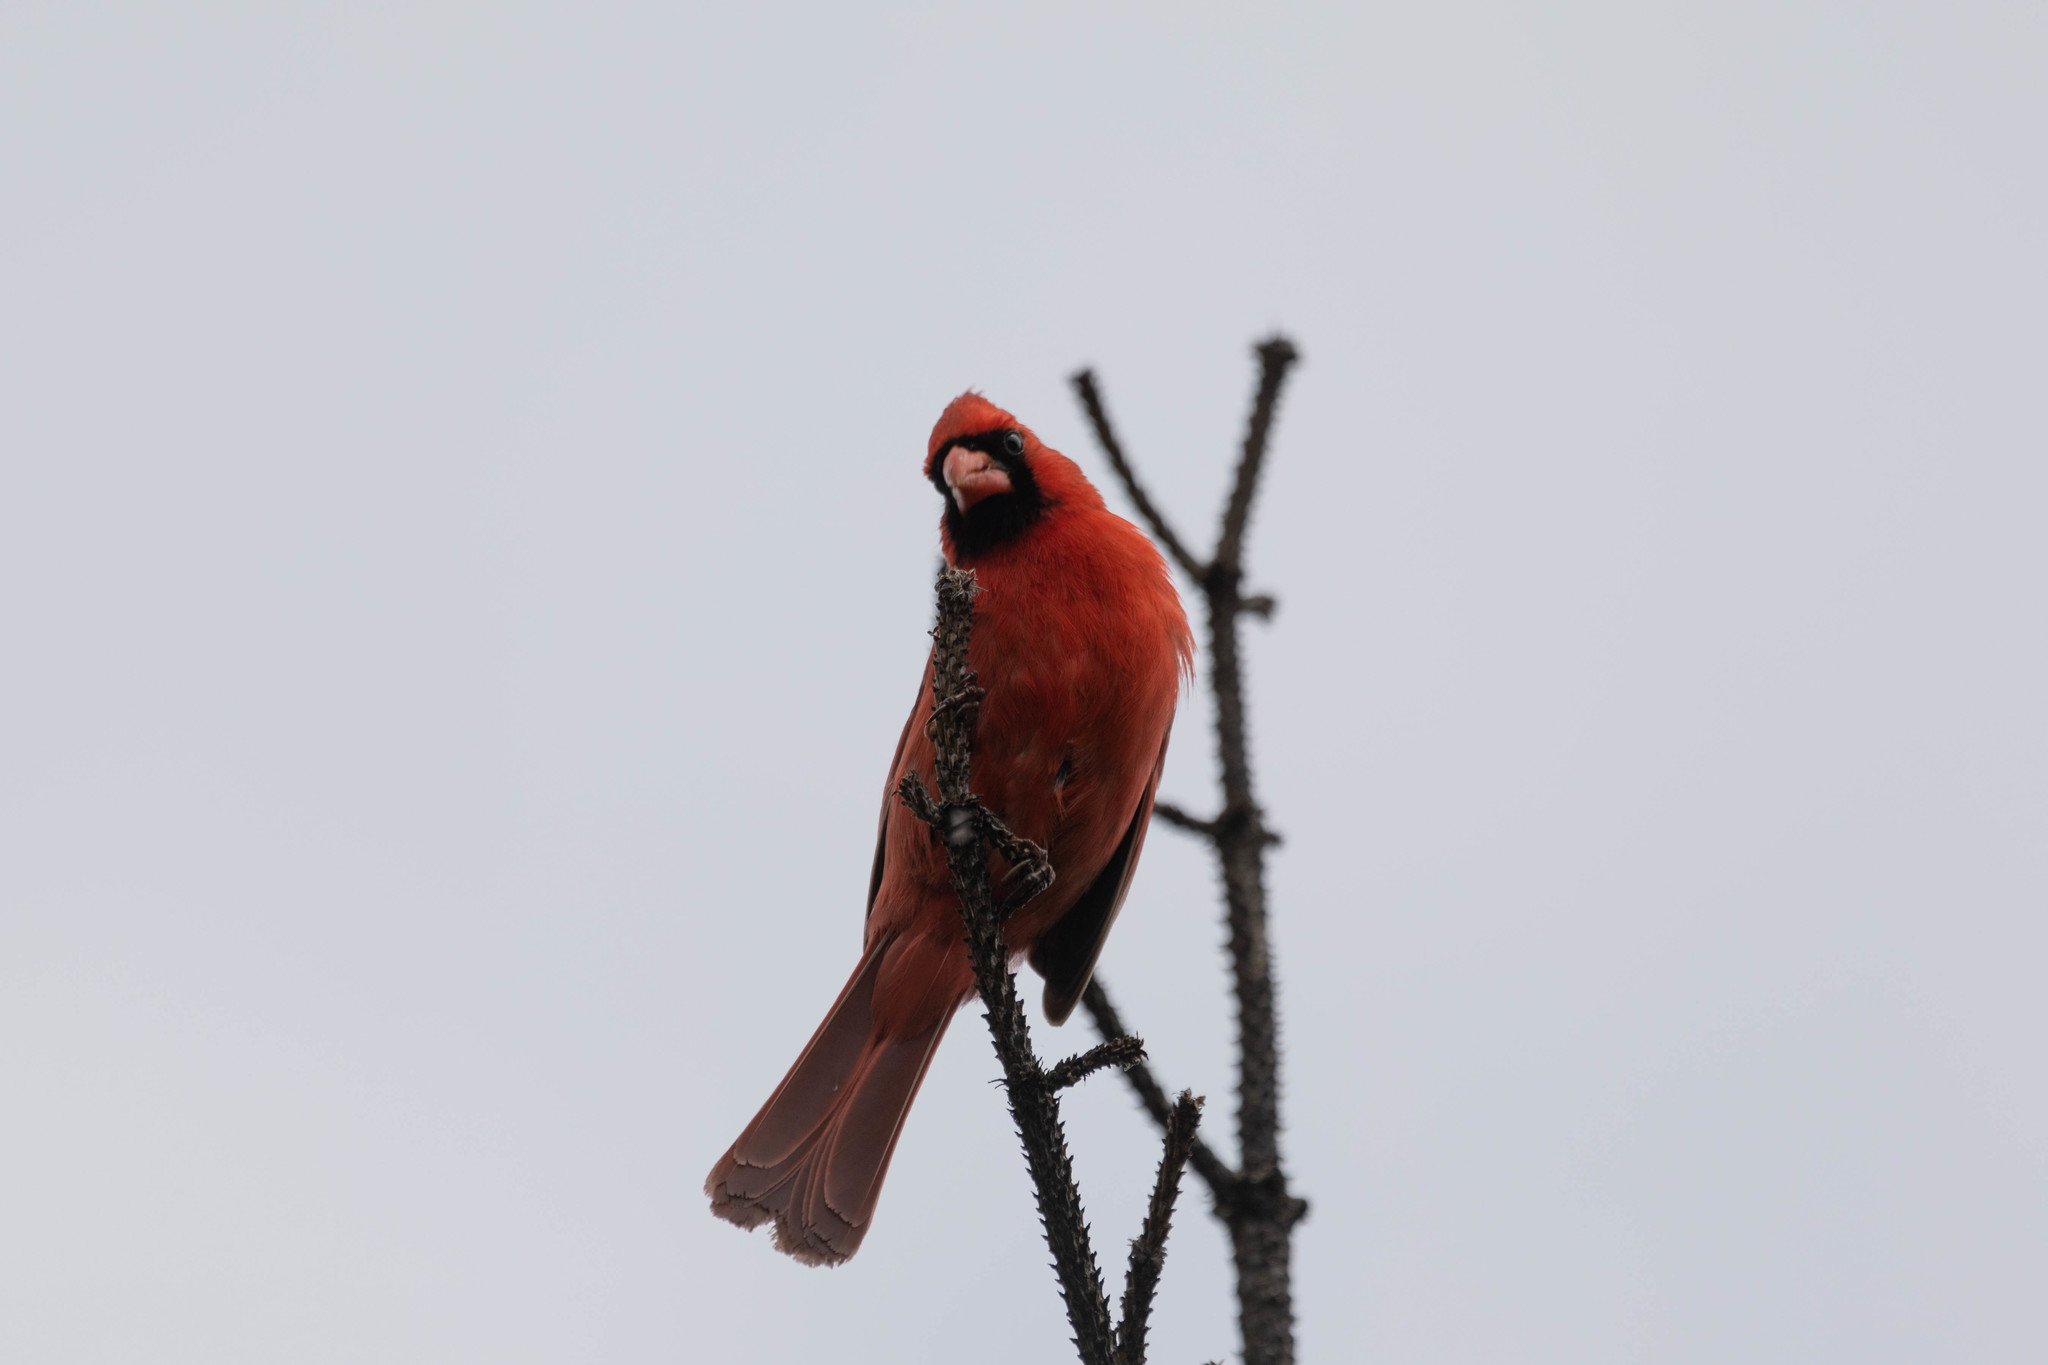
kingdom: Animalia
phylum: Chordata
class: Aves
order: Passeriformes
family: Cardinalidae
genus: Cardinalis
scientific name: Cardinalis cardinalis
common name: Northern cardinal
